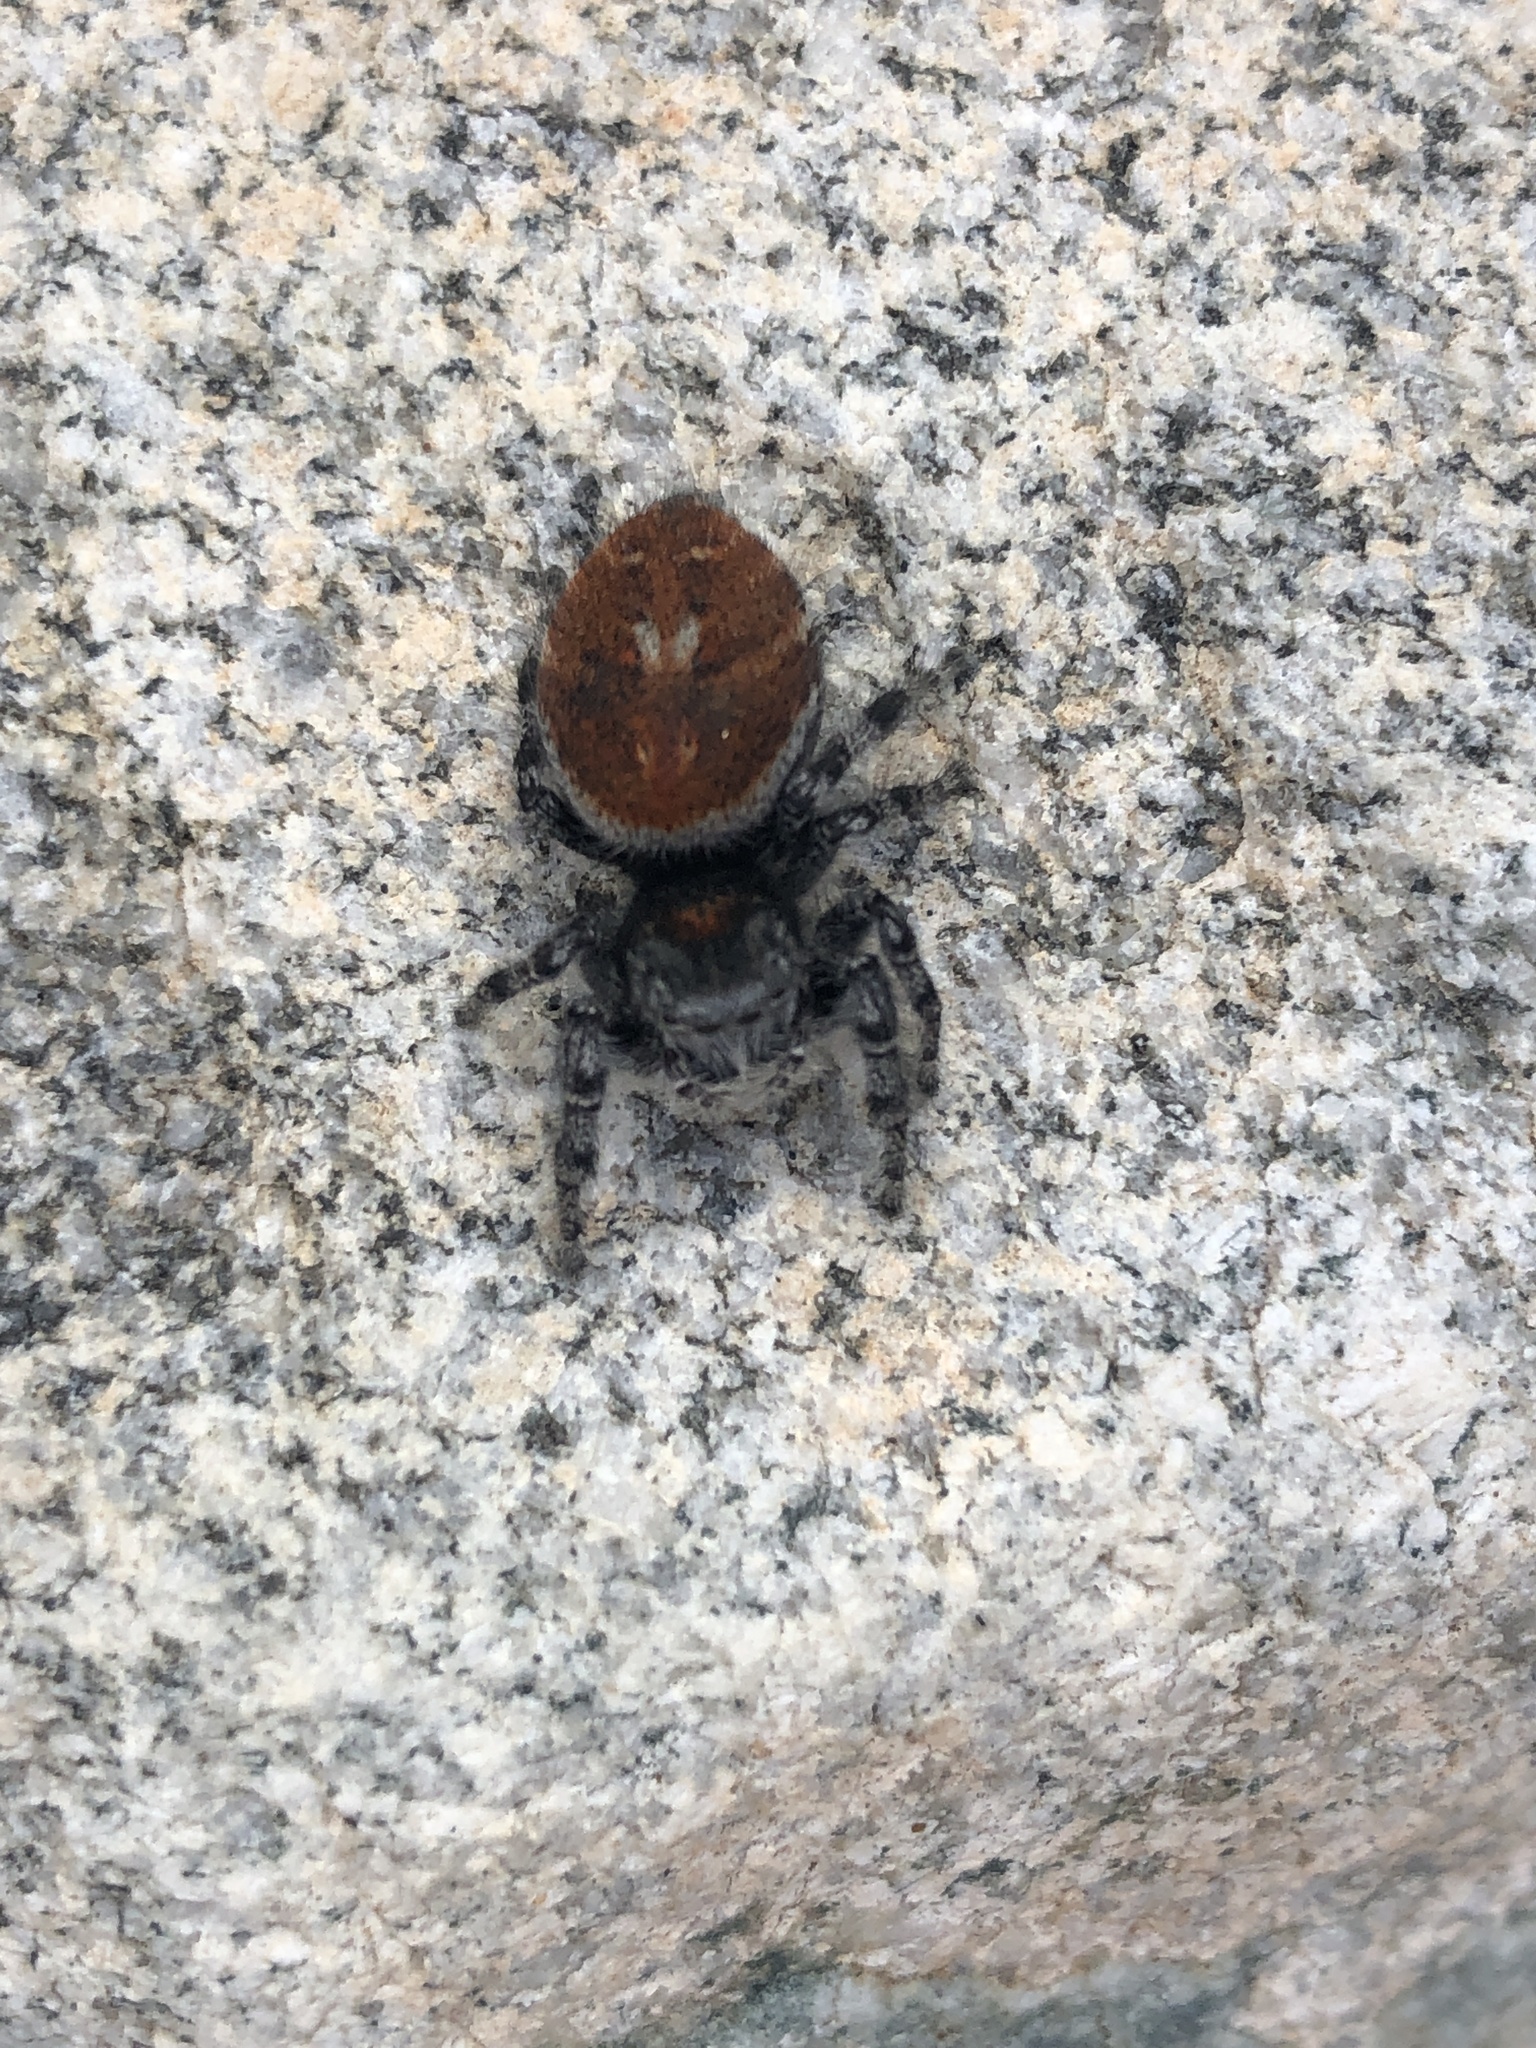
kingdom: Animalia
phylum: Arthropoda
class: Arachnida
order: Araneae
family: Salticidae
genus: Phidippus
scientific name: Phidippus adumbratus
